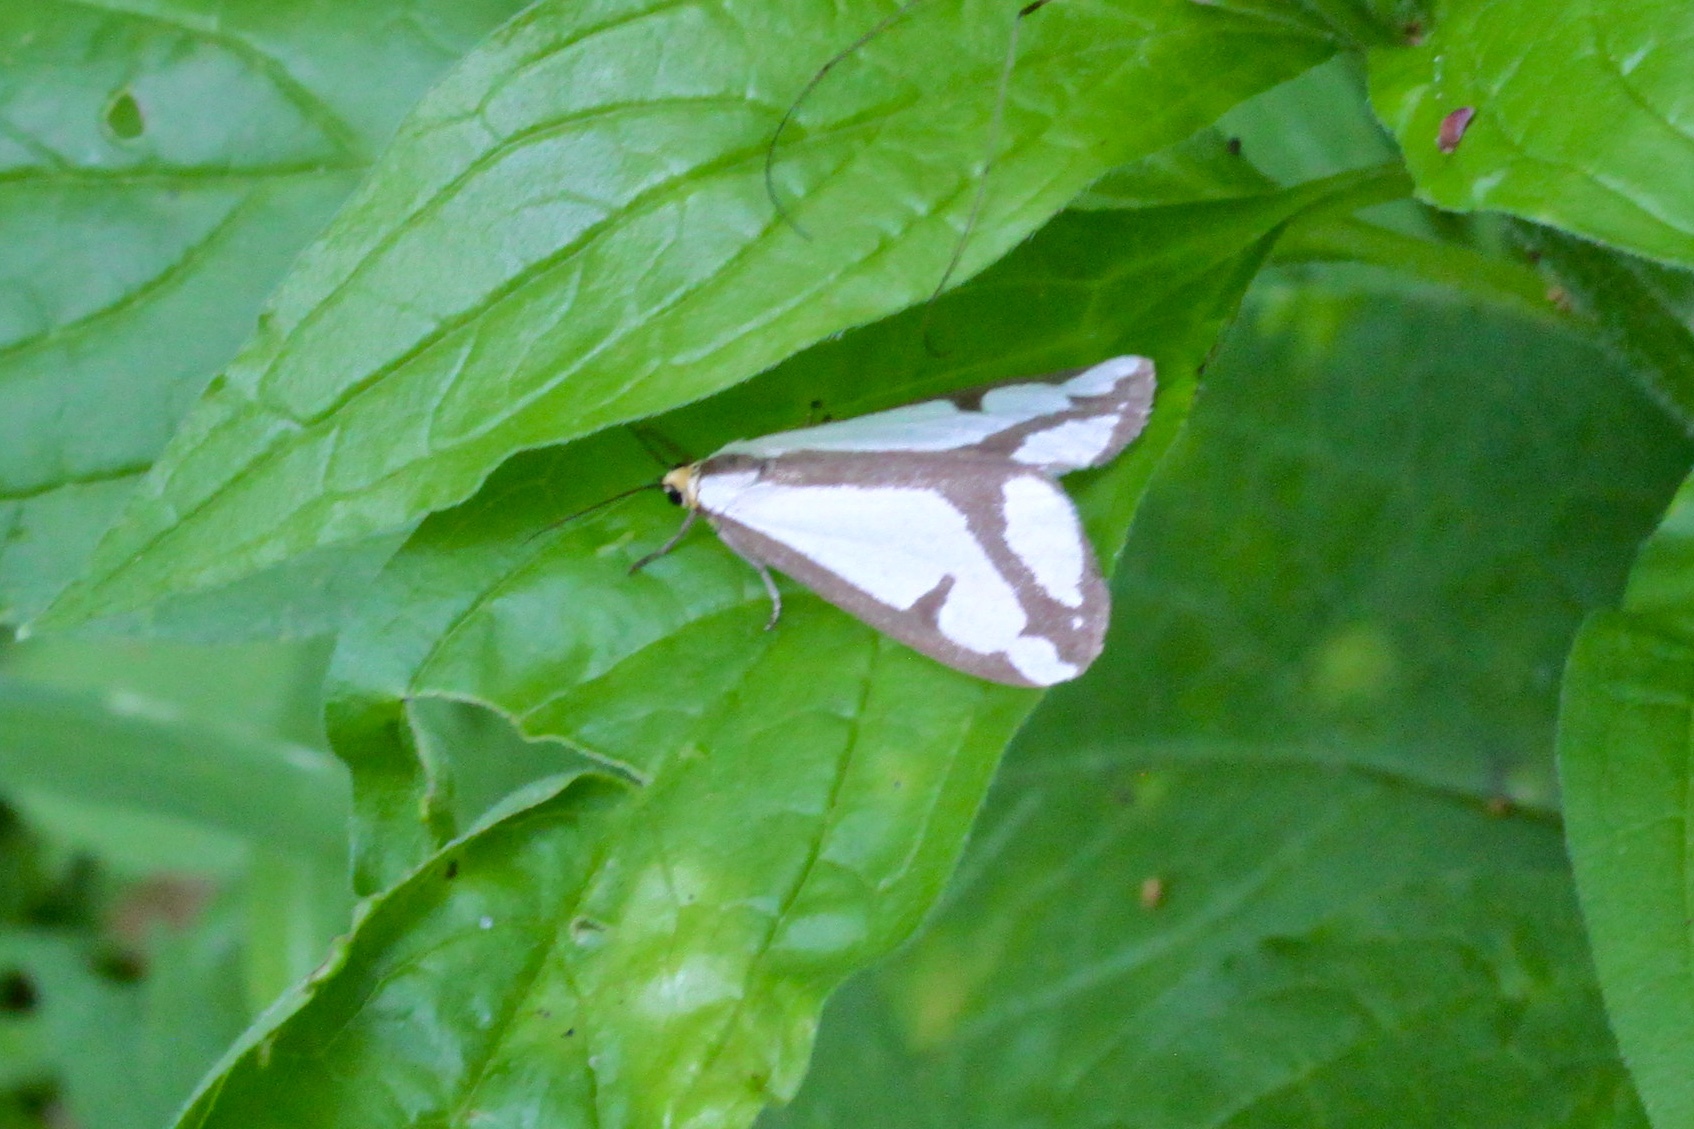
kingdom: Animalia
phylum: Arthropoda
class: Insecta
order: Lepidoptera
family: Erebidae
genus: Haploa
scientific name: Haploa lecontei
